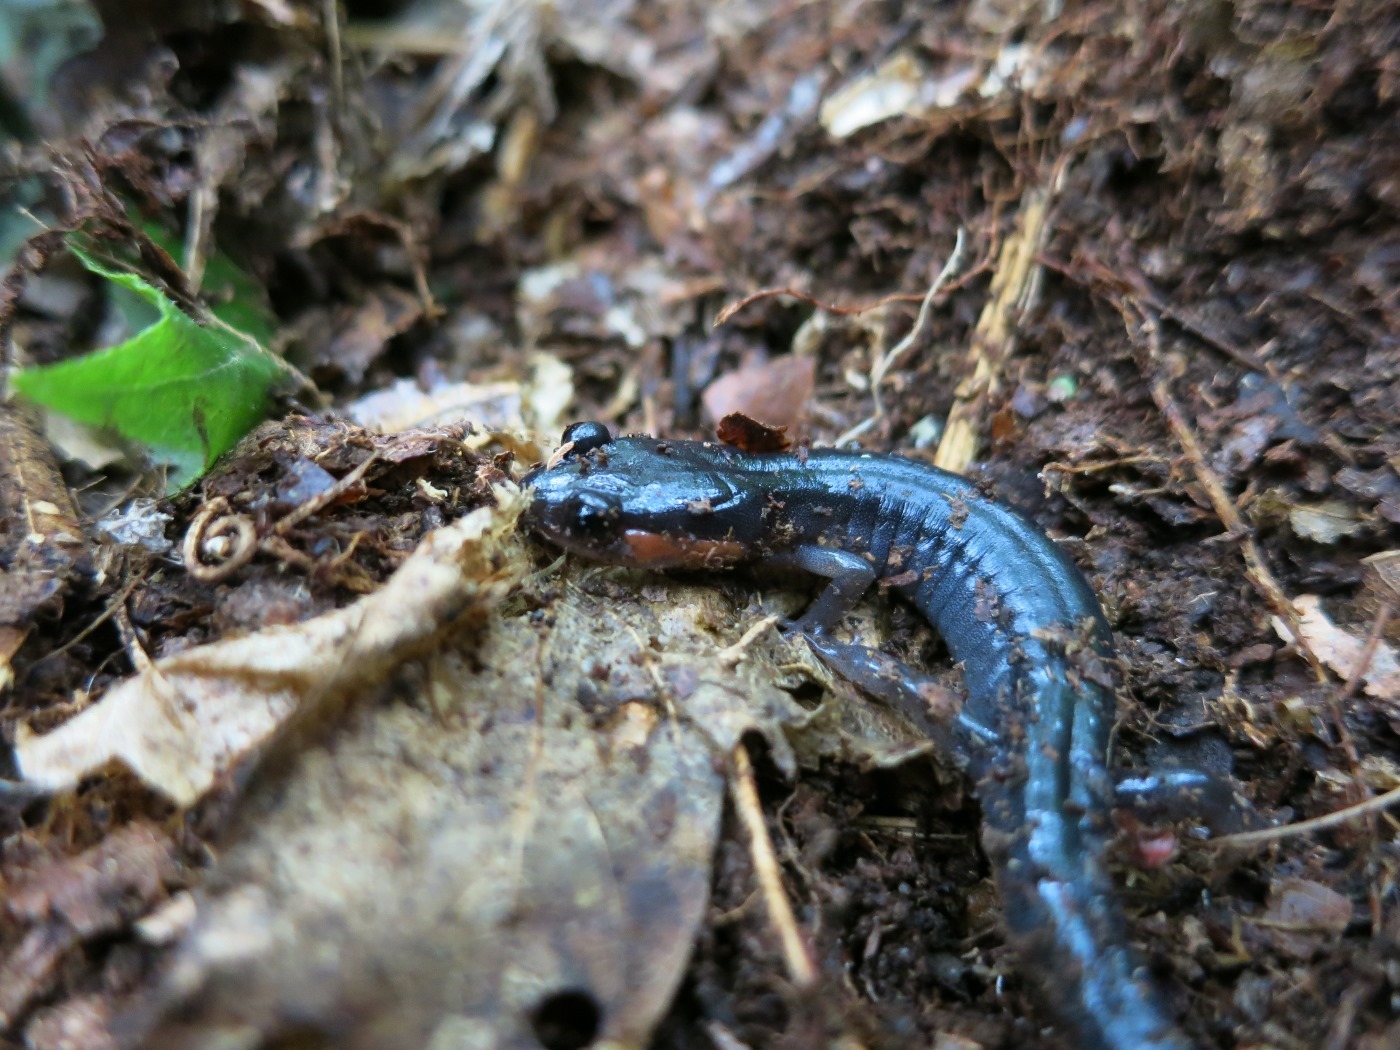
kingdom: Animalia
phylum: Chordata
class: Amphibia
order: Caudata
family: Plethodontidae
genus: Plethodon
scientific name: Plethodon jordani
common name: Red-cheeked salamander
